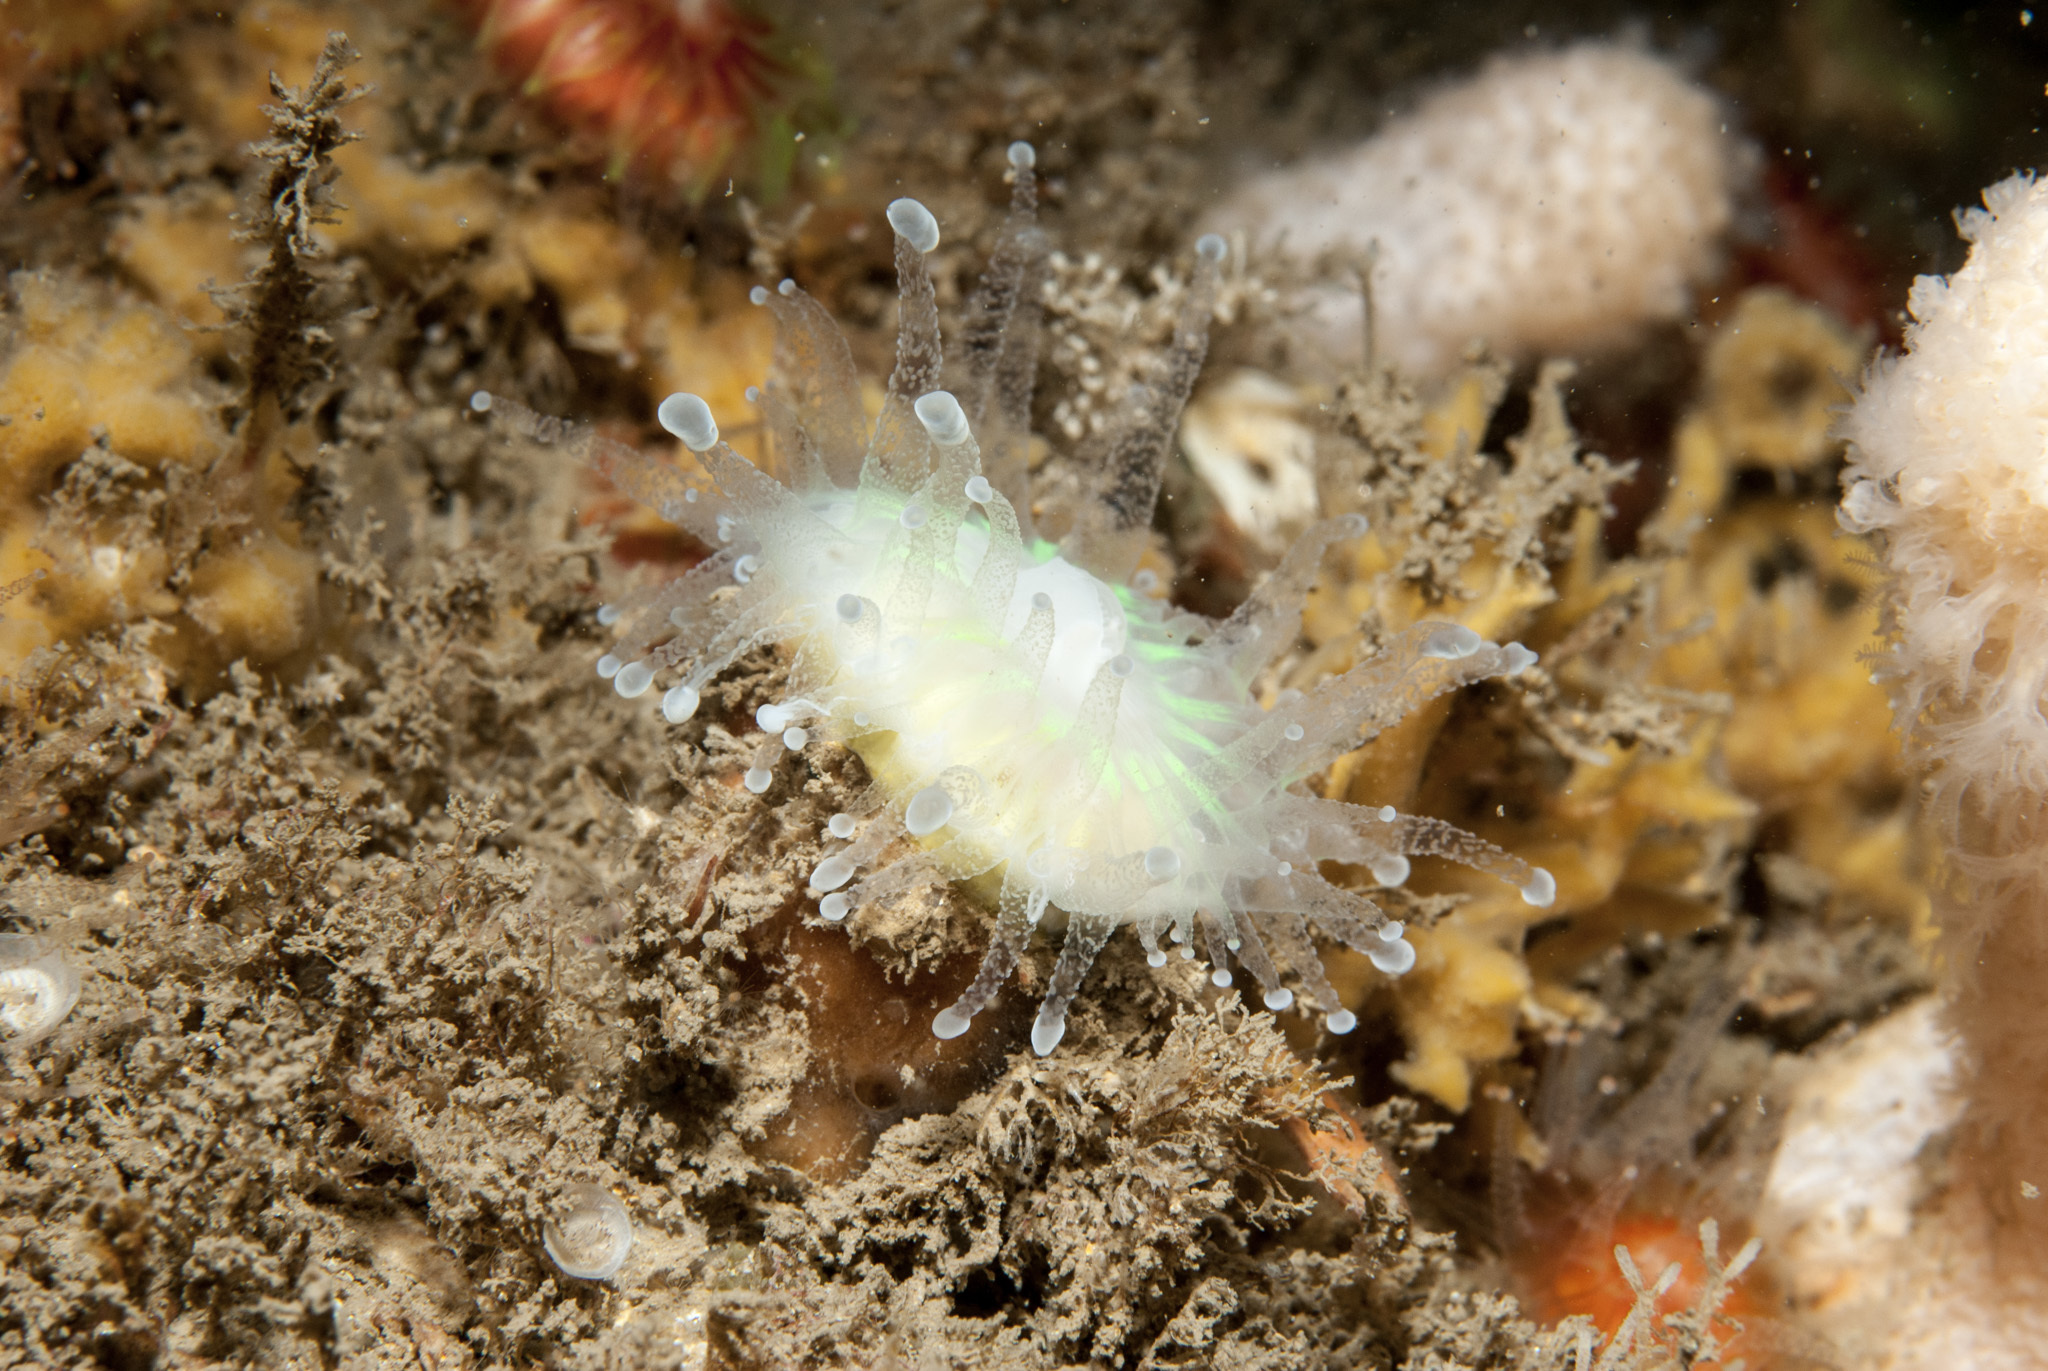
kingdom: Animalia
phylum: Cnidaria
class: Anthozoa
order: Scleractinia
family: Caryophylliidae
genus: Caryophyllia
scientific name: Caryophyllia smithii
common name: Devonshire cup coral
